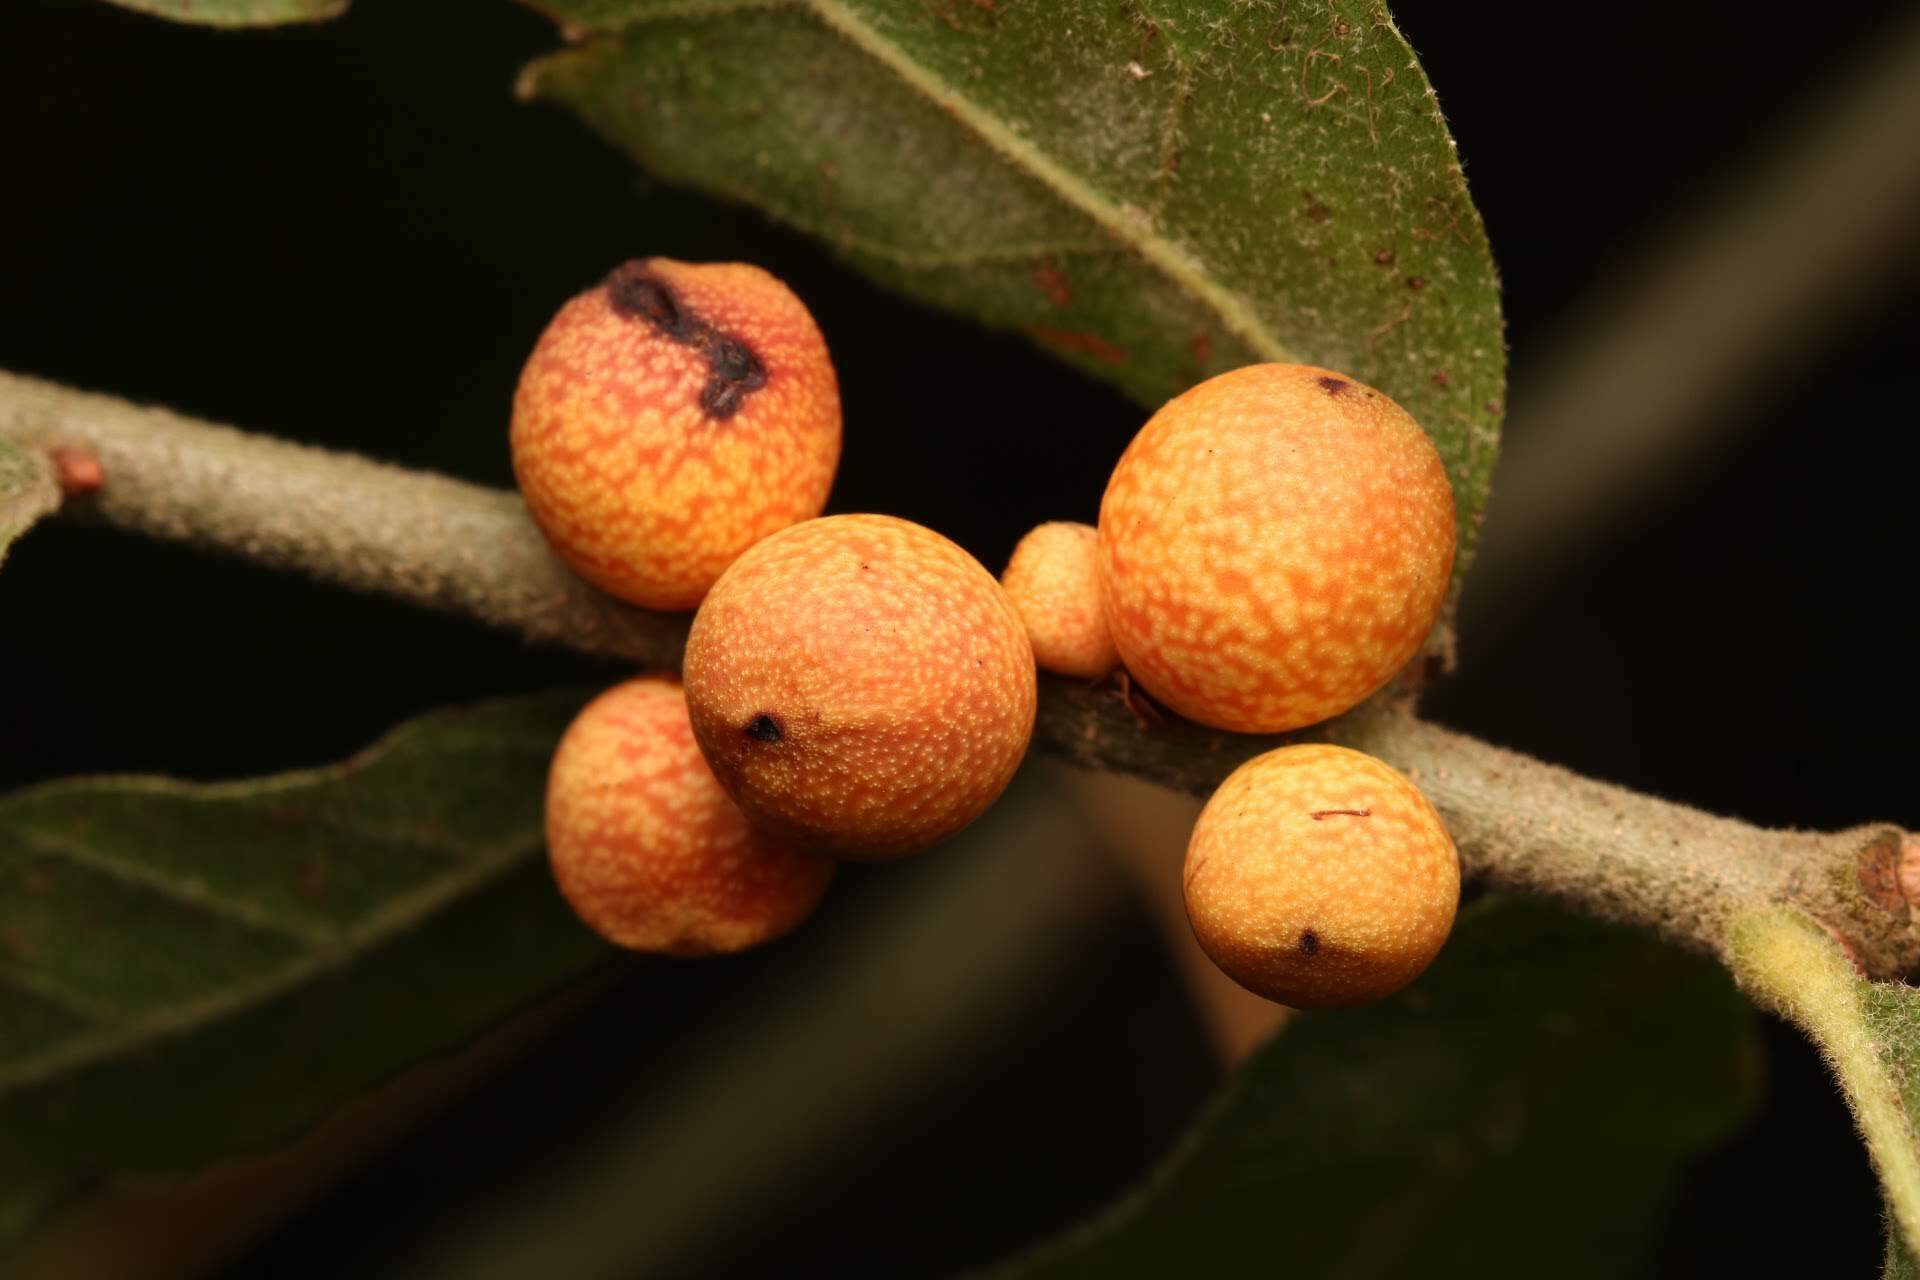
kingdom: Animalia
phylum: Arthropoda
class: Insecta
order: Hymenoptera
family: Cynipidae
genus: Kokkocynips
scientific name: Kokkocynips imbricariae
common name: Banded bullet gall wasp
